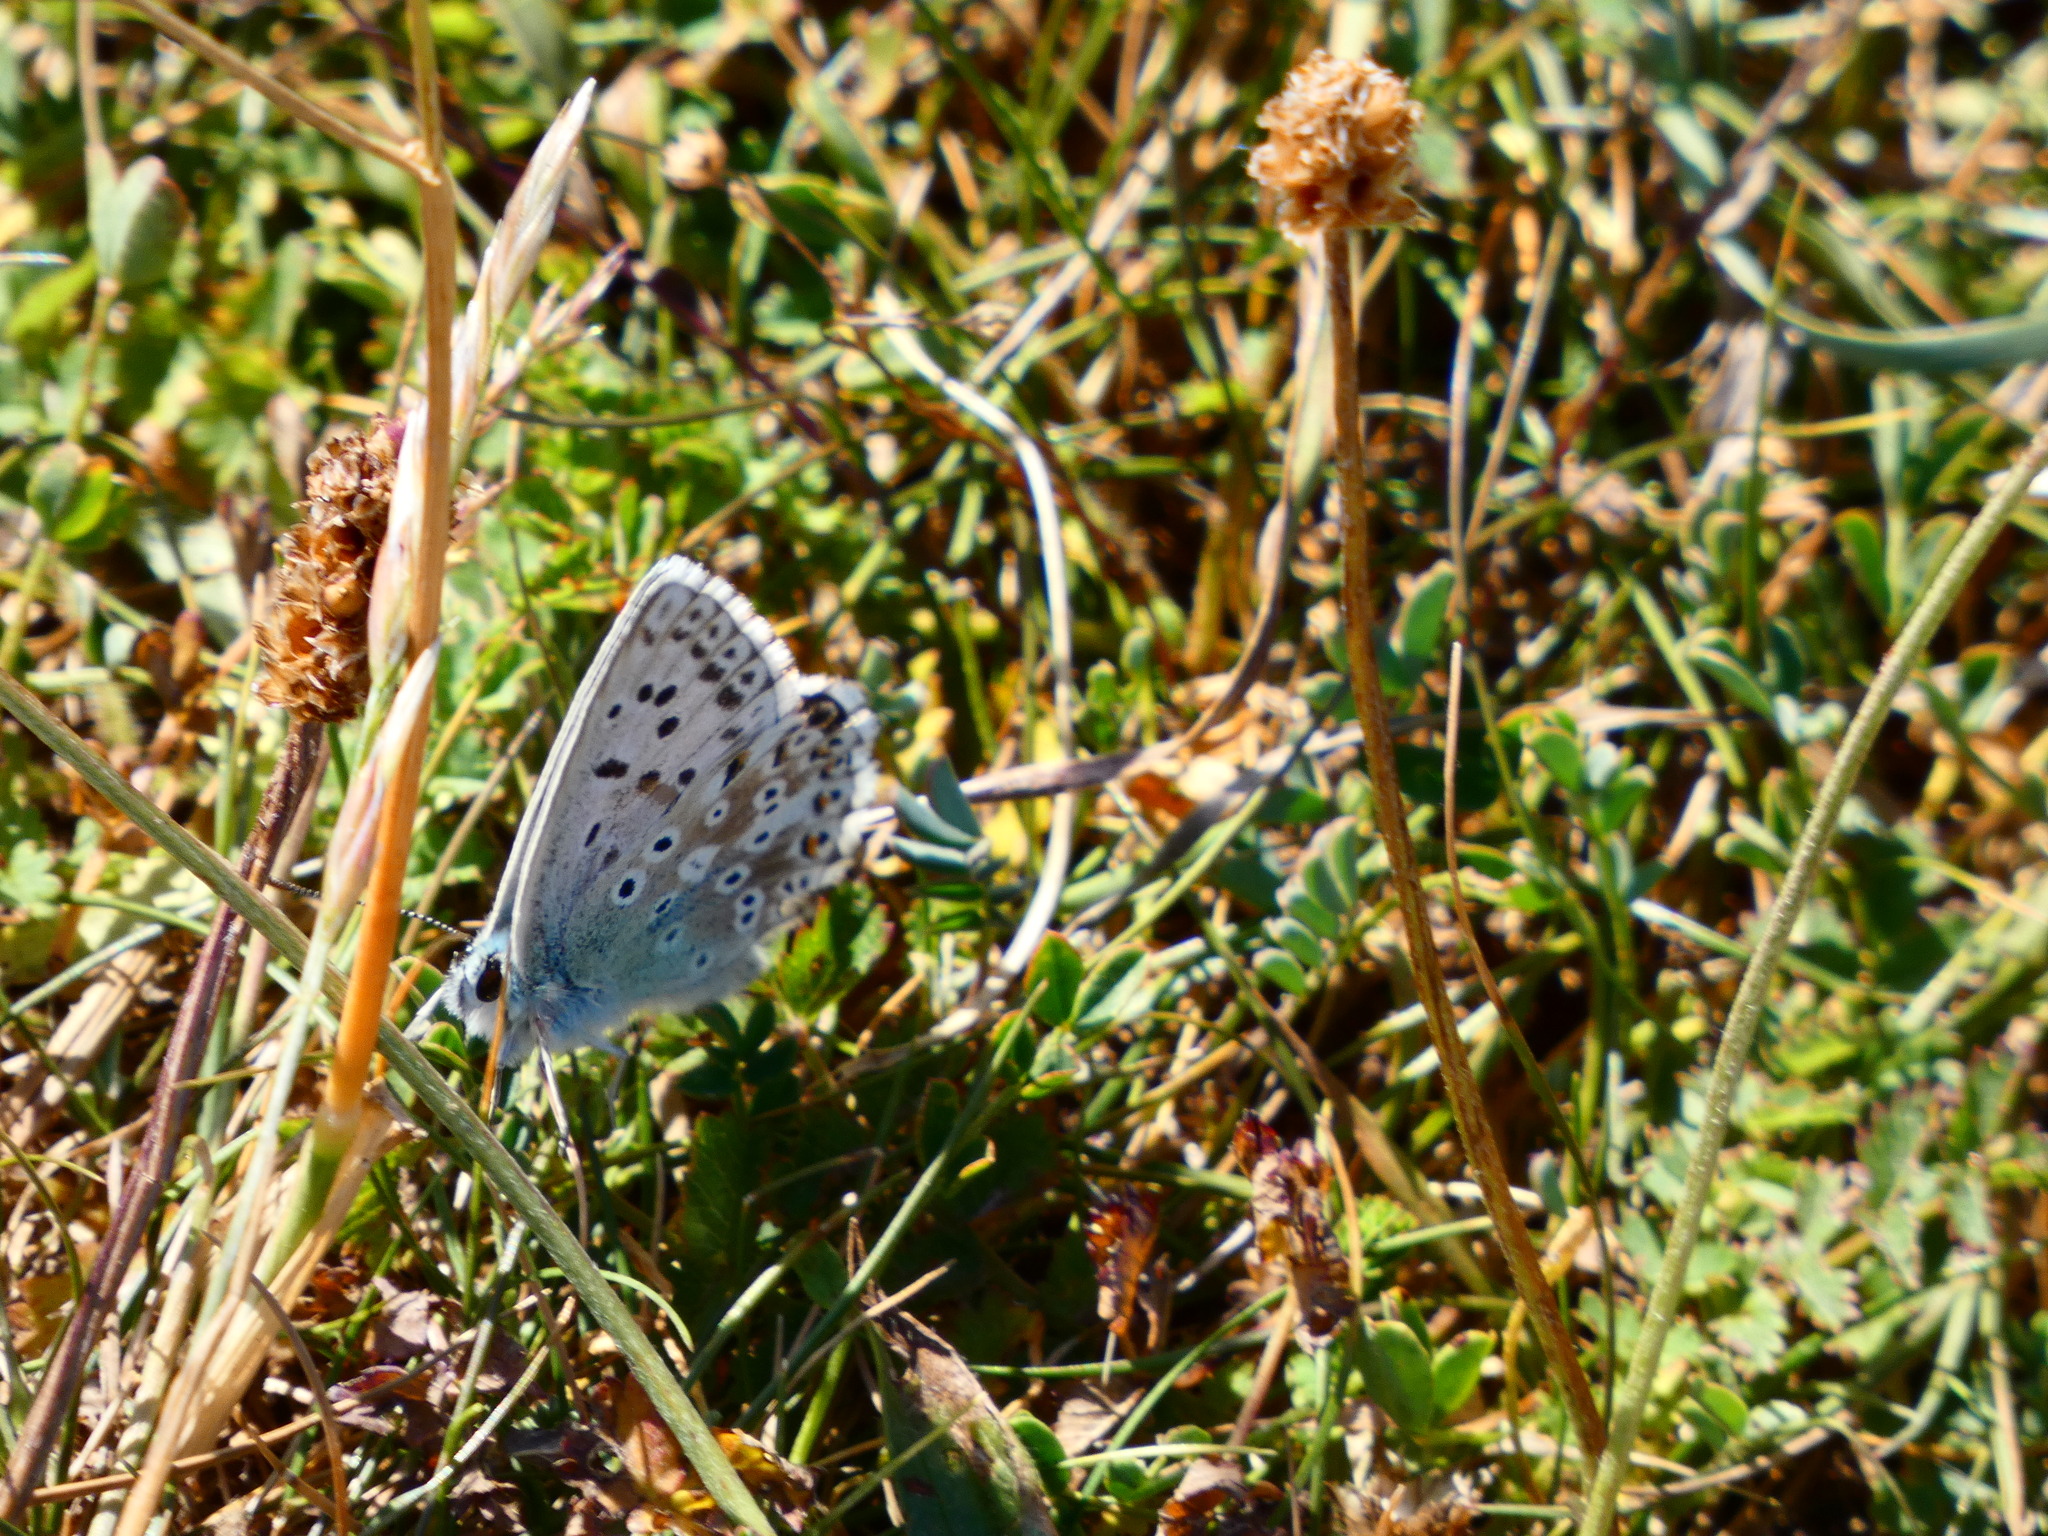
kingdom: Animalia
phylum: Arthropoda
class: Insecta
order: Lepidoptera
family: Lycaenidae
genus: Lysandra
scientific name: Lysandra coridon
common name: Chalkhill blue
